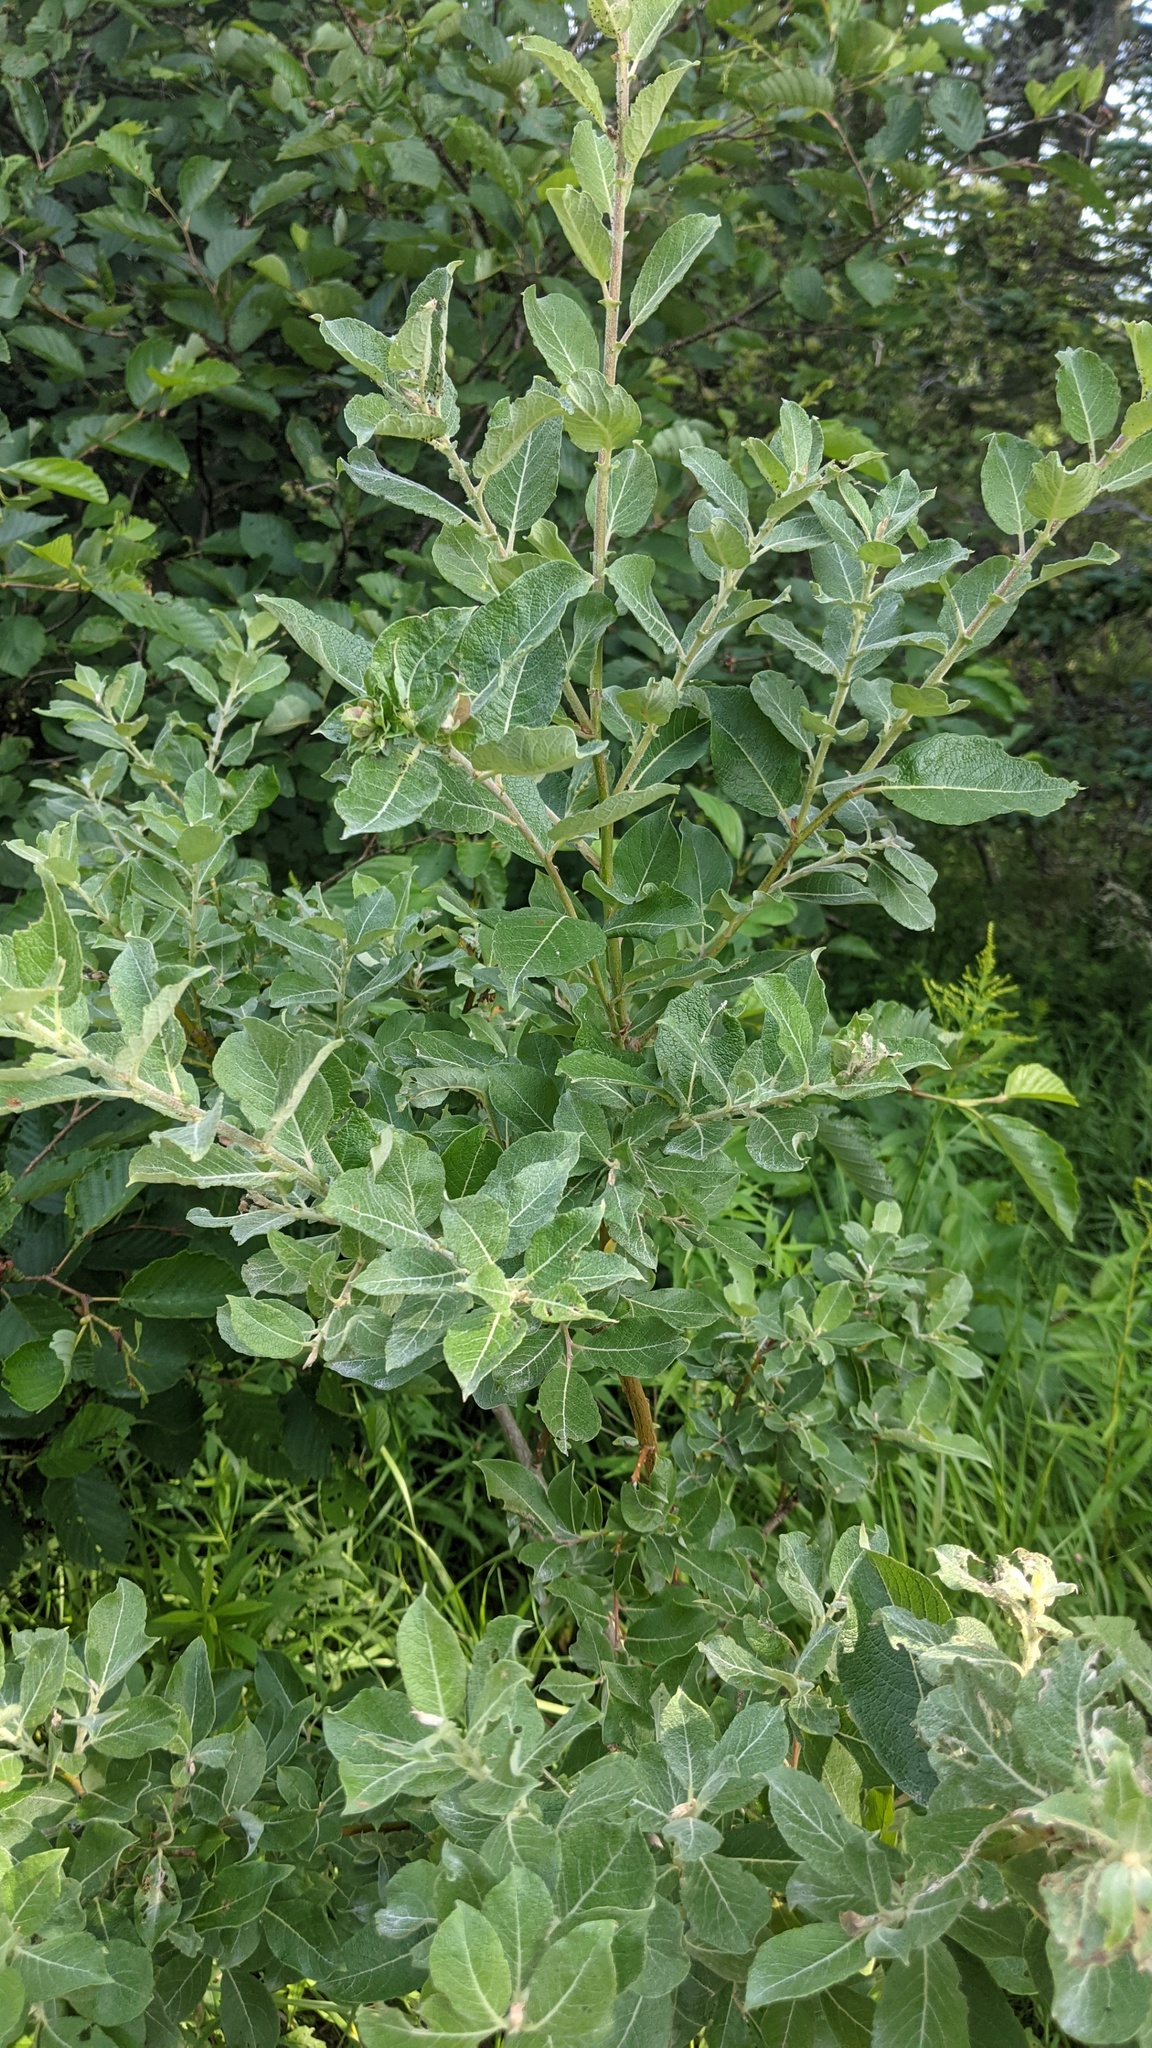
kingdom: Plantae
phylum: Tracheophyta
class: Magnoliopsida
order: Malpighiales
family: Salicaceae
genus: Salix
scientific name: Salix bebbiana
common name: Bebb's willow
